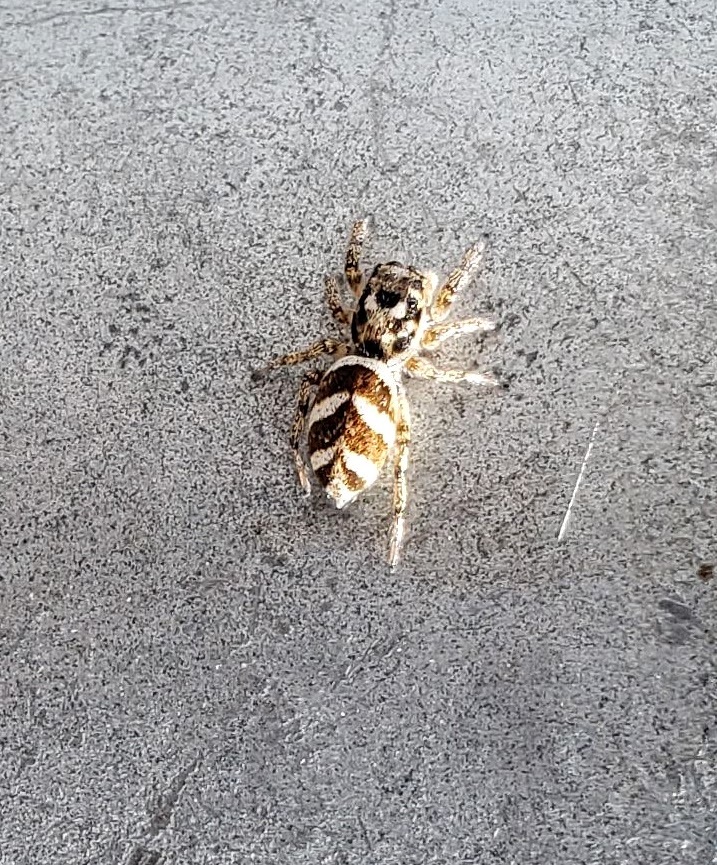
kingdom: Animalia
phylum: Arthropoda
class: Arachnida
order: Araneae
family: Salticidae
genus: Salticus
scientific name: Salticus scenicus
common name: Zebra jumper
